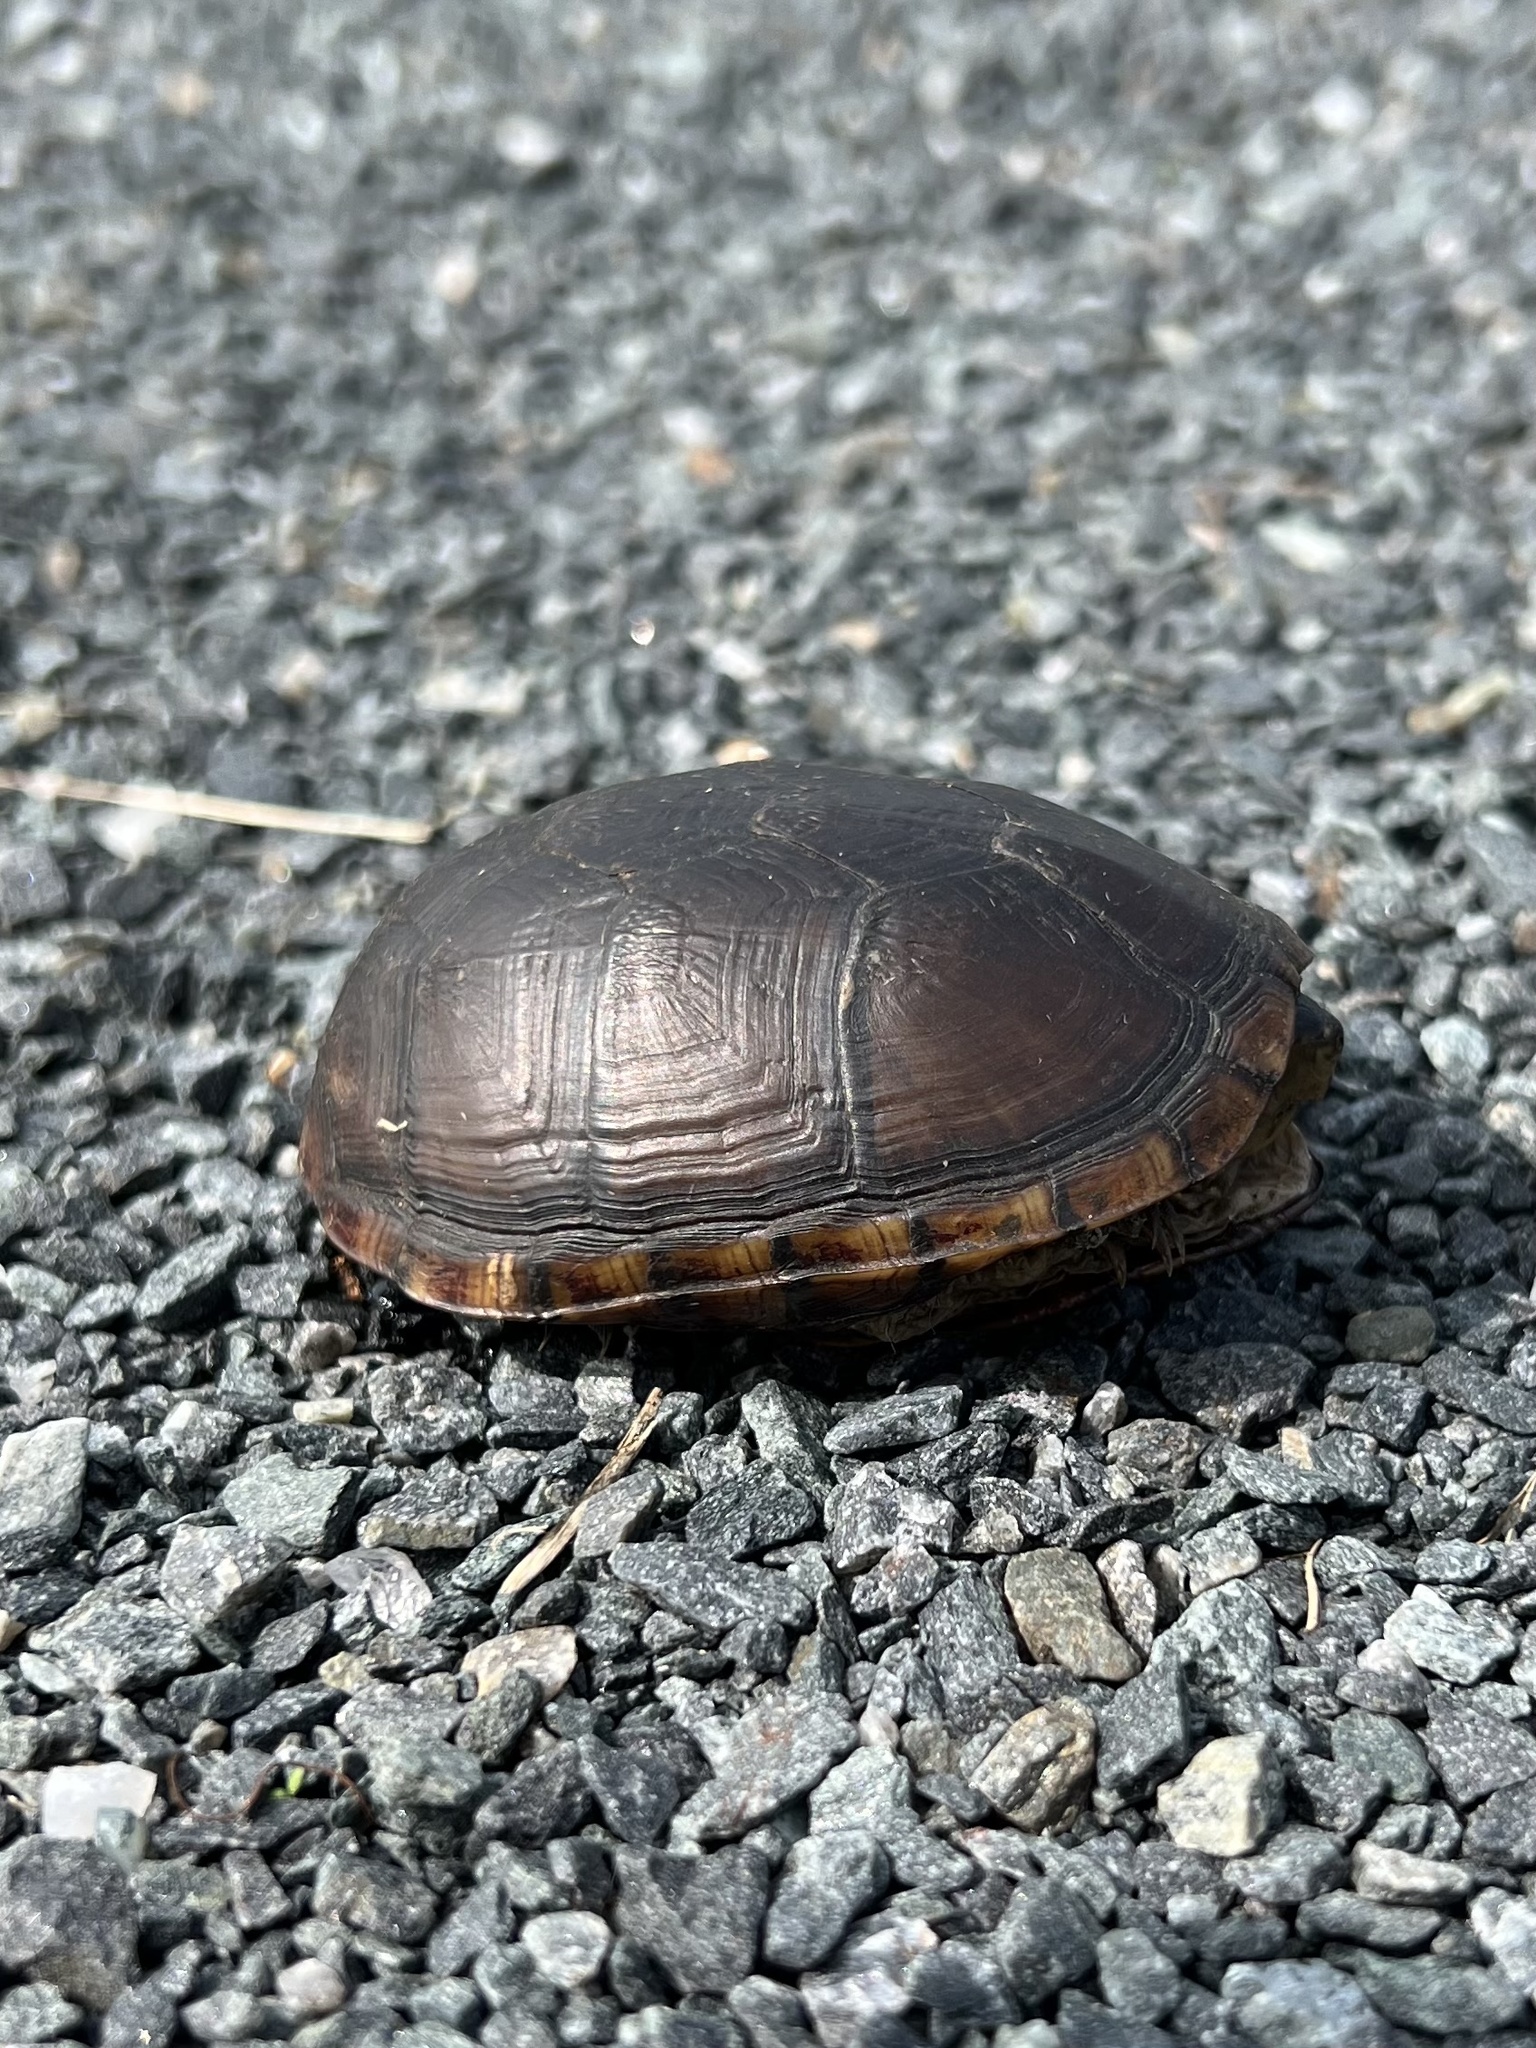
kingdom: Animalia
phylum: Chordata
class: Testudines
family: Kinosternidae
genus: Kinosternon
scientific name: Kinosternon subrubrum
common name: Eastern mud turtle
